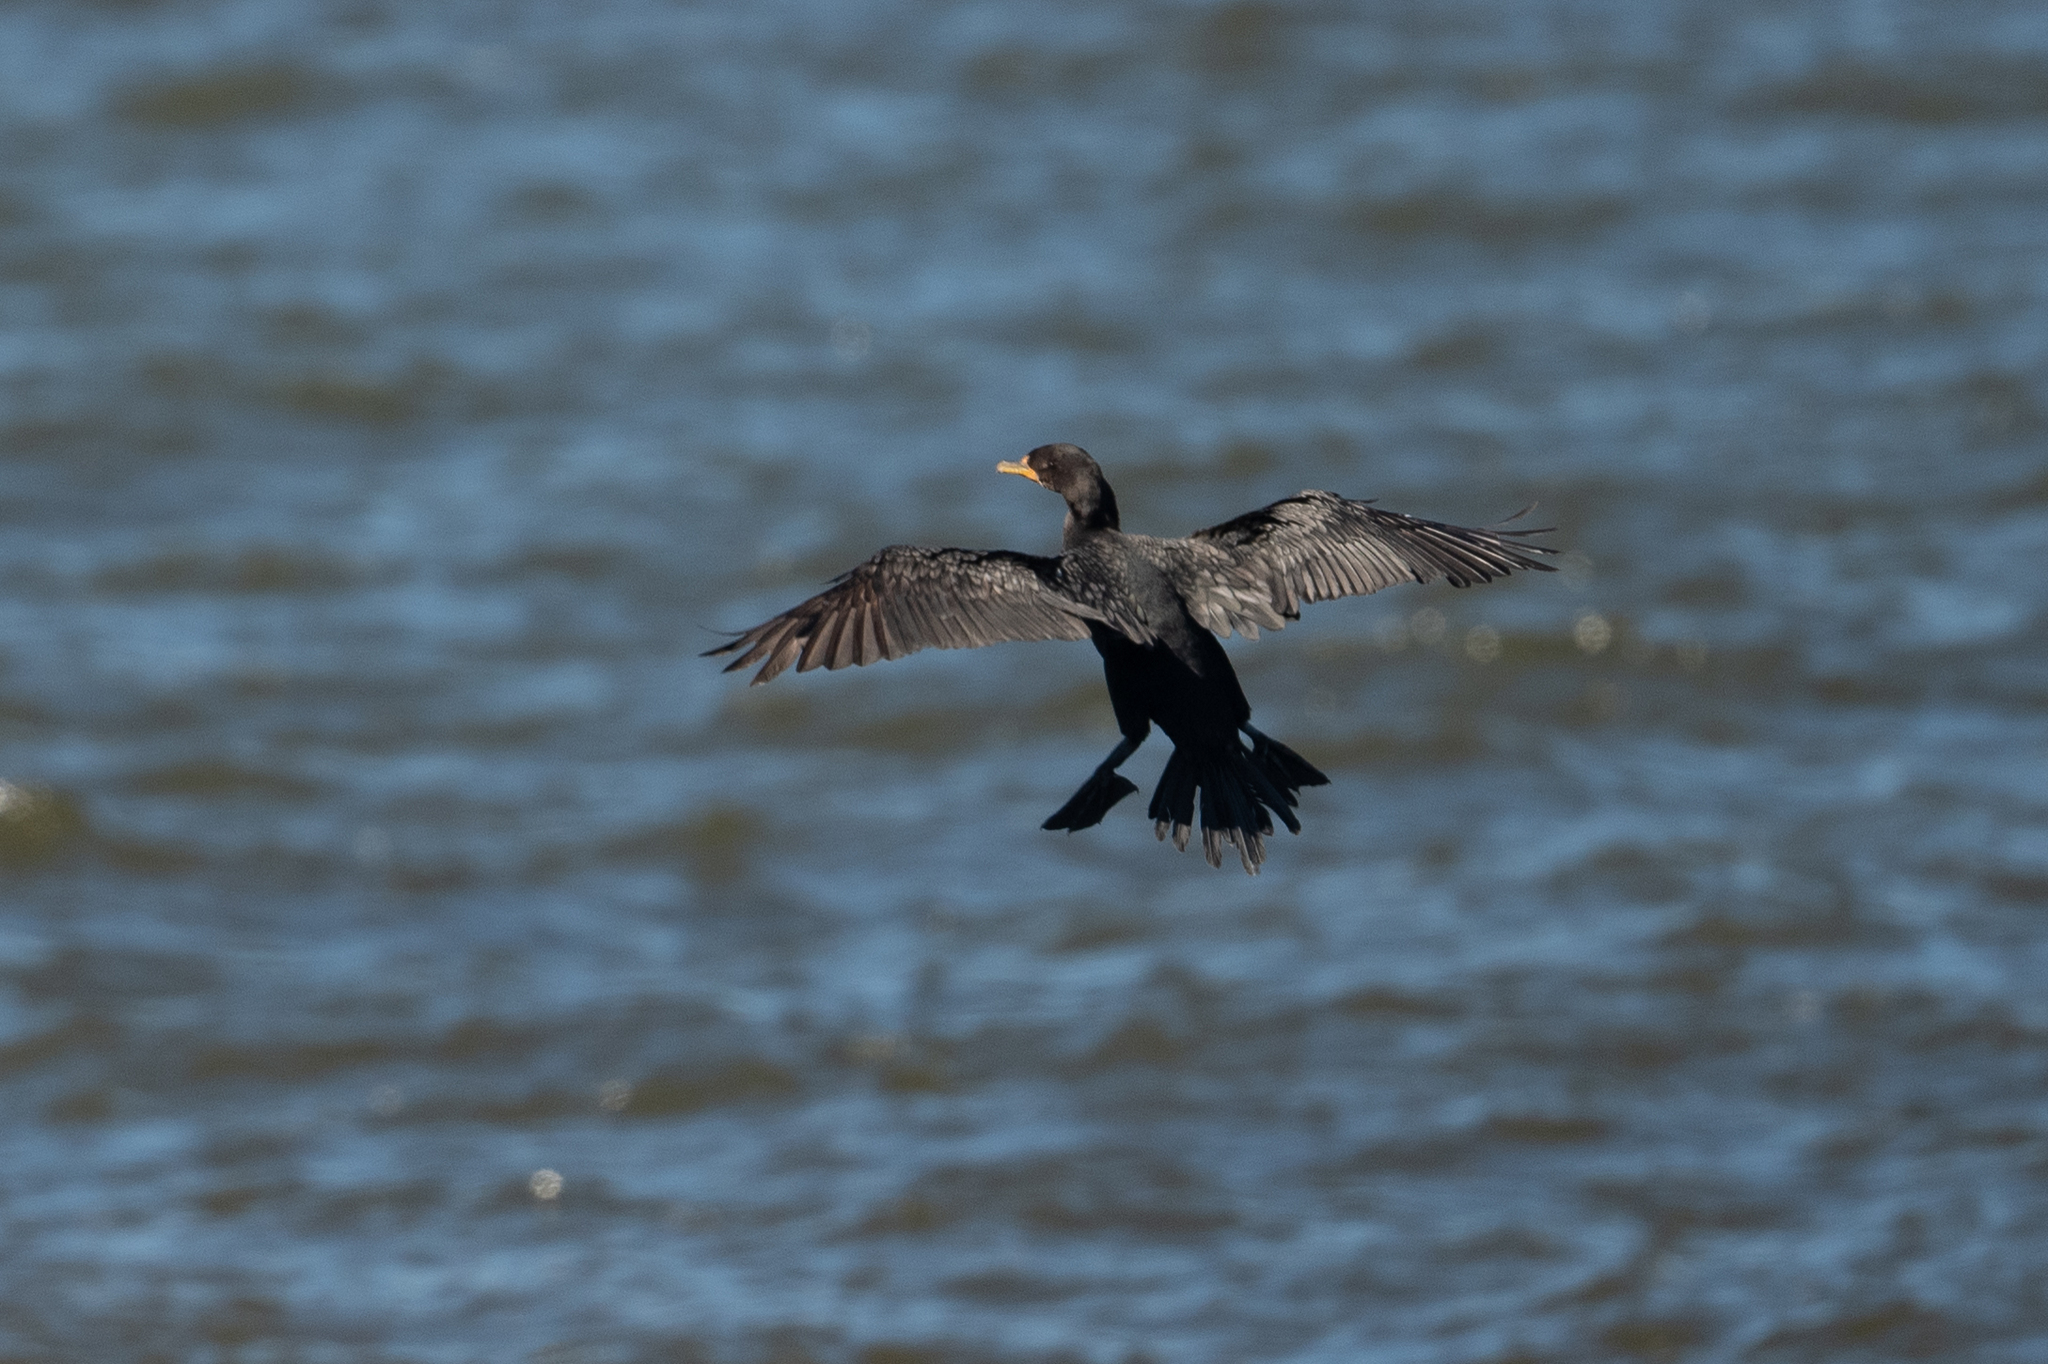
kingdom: Animalia
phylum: Chordata
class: Aves
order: Suliformes
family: Phalacrocoracidae
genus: Phalacrocorax
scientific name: Phalacrocorax auritus
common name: Double-crested cormorant
